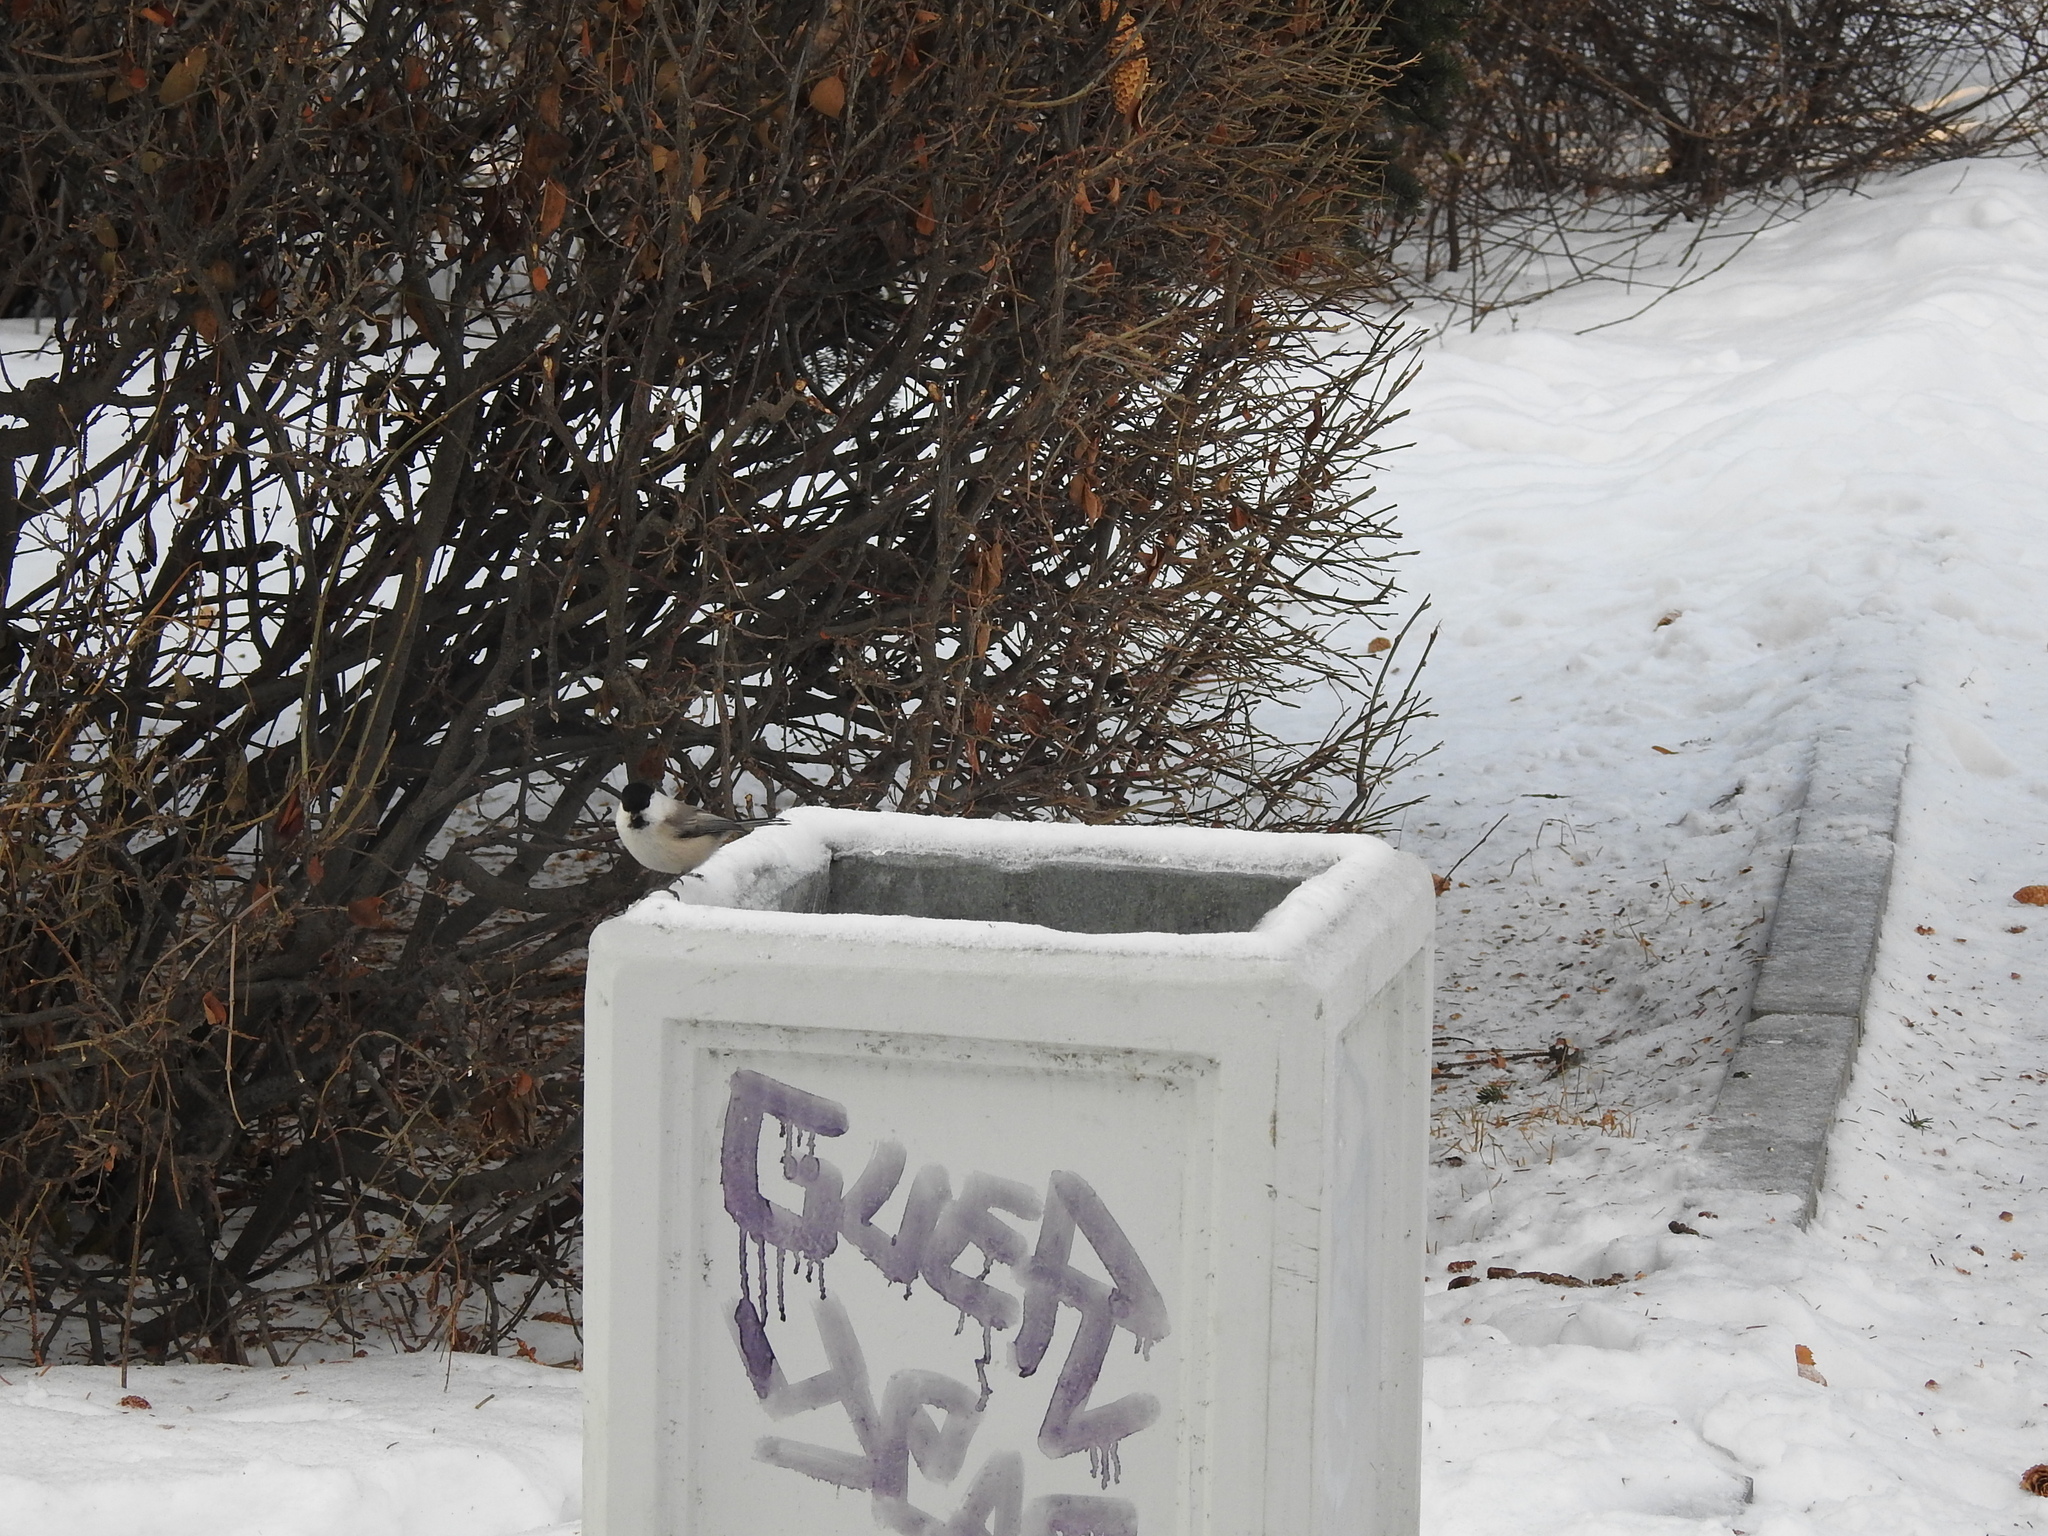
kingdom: Animalia
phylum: Chordata
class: Aves
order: Passeriformes
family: Paridae
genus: Poecile
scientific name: Poecile montanus
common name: Willow tit
